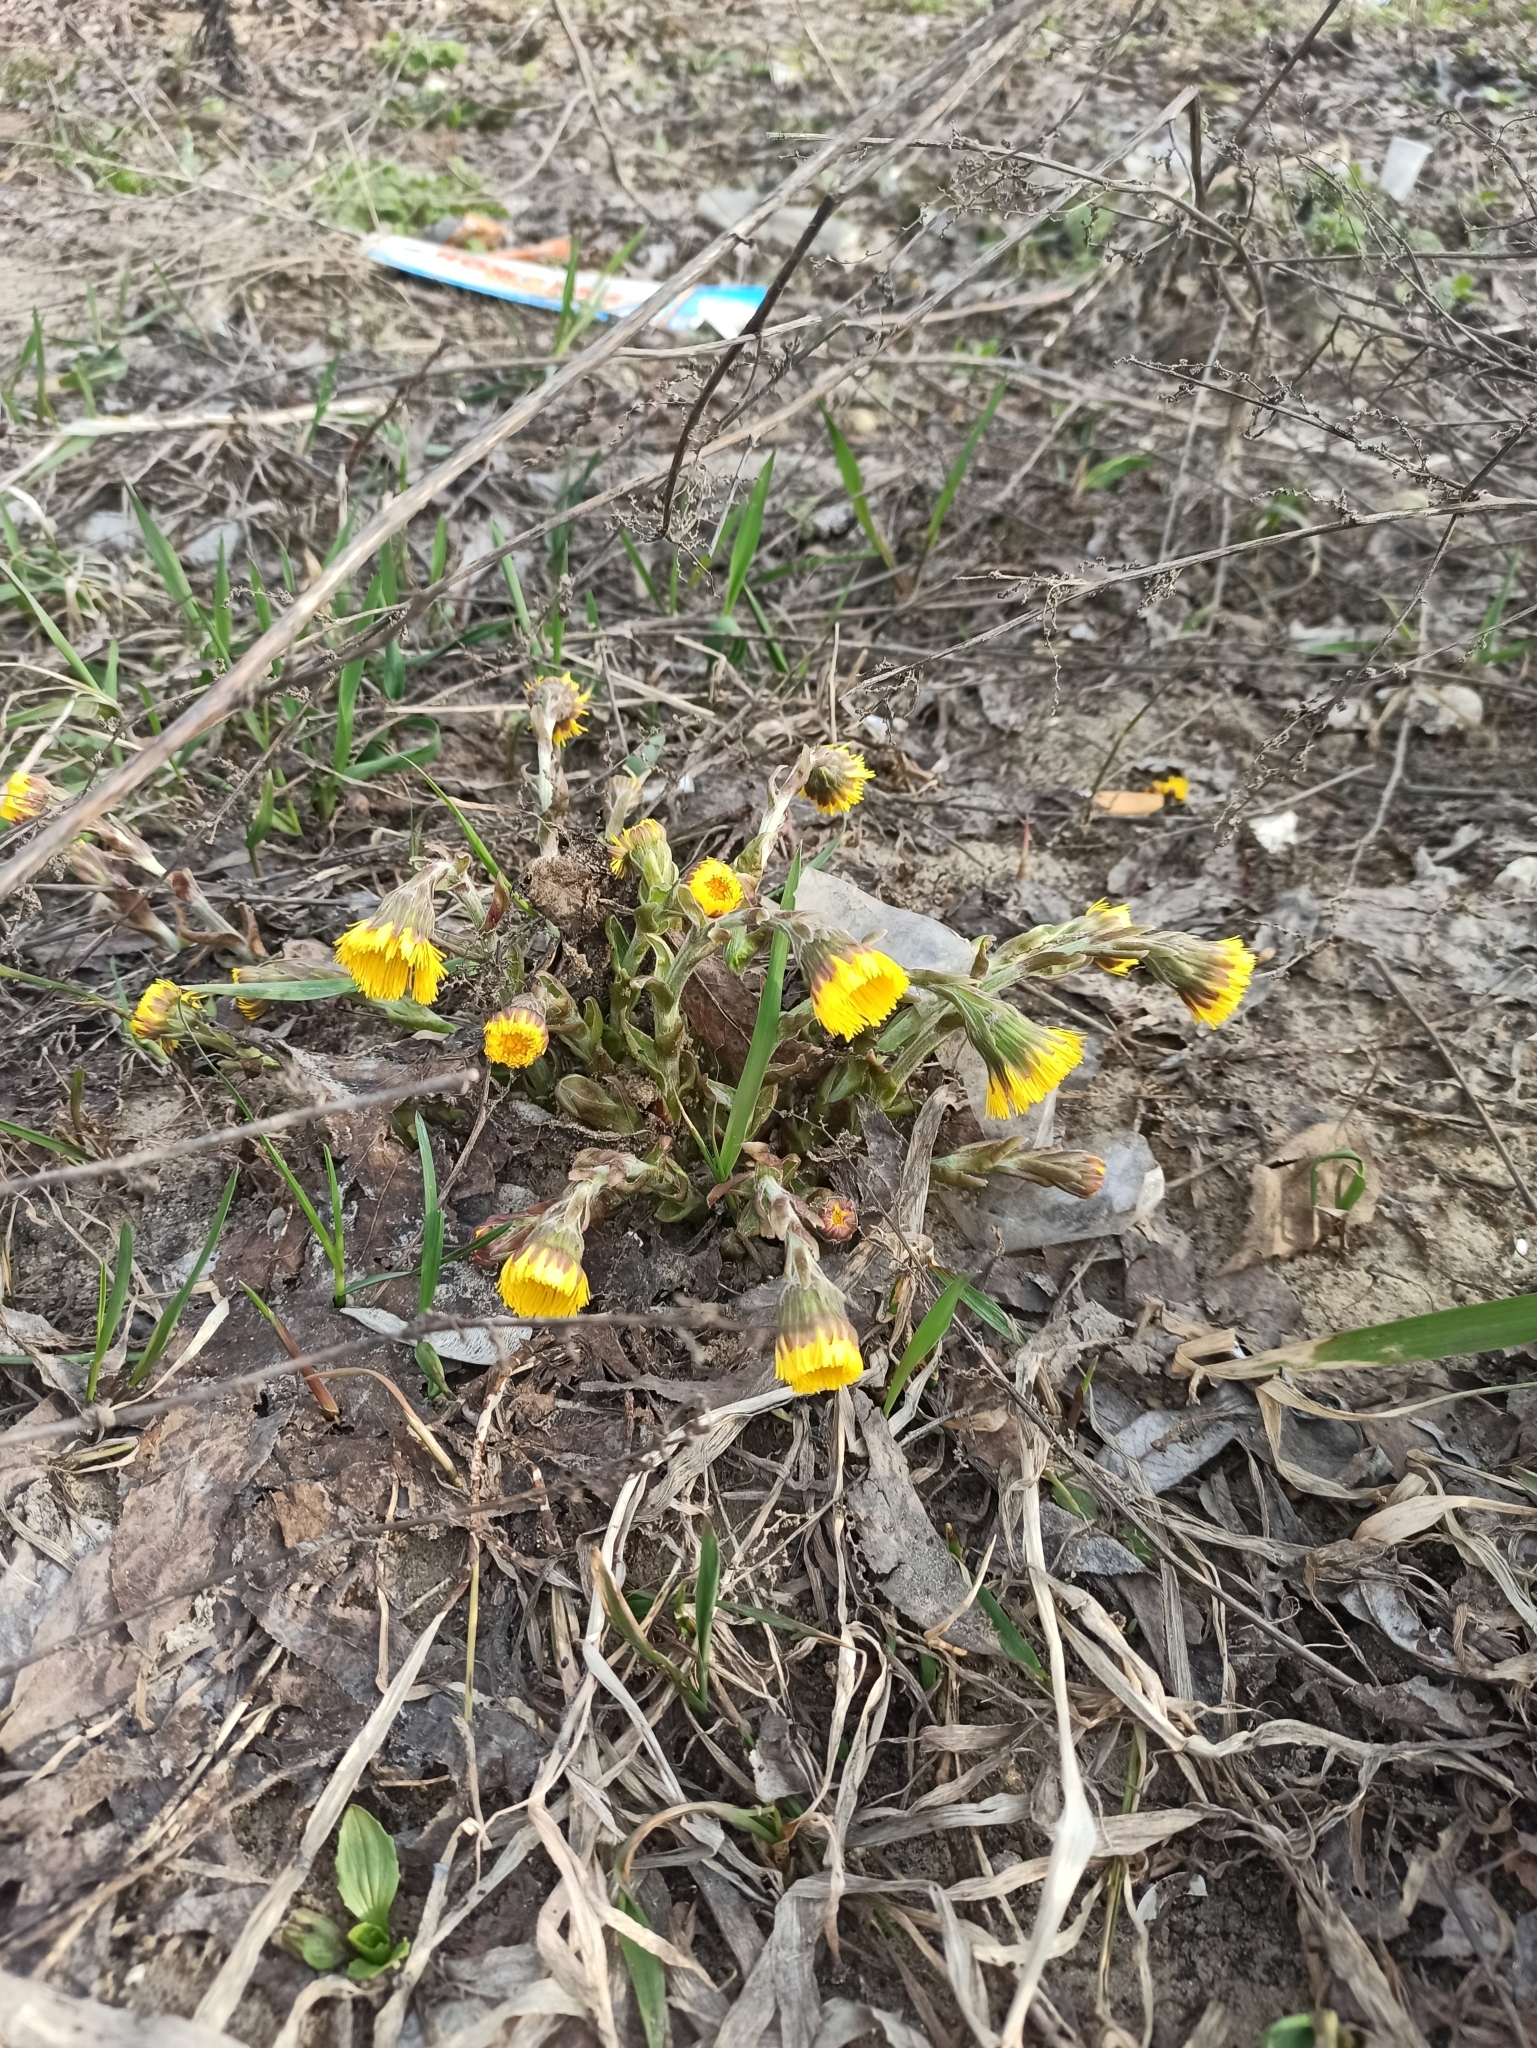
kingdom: Plantae
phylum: Tracheophyta
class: Magnoliopsida
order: Asterales
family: Asteraceae
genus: Tussilago
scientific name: Tussilago farfara
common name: Coltsfoot
